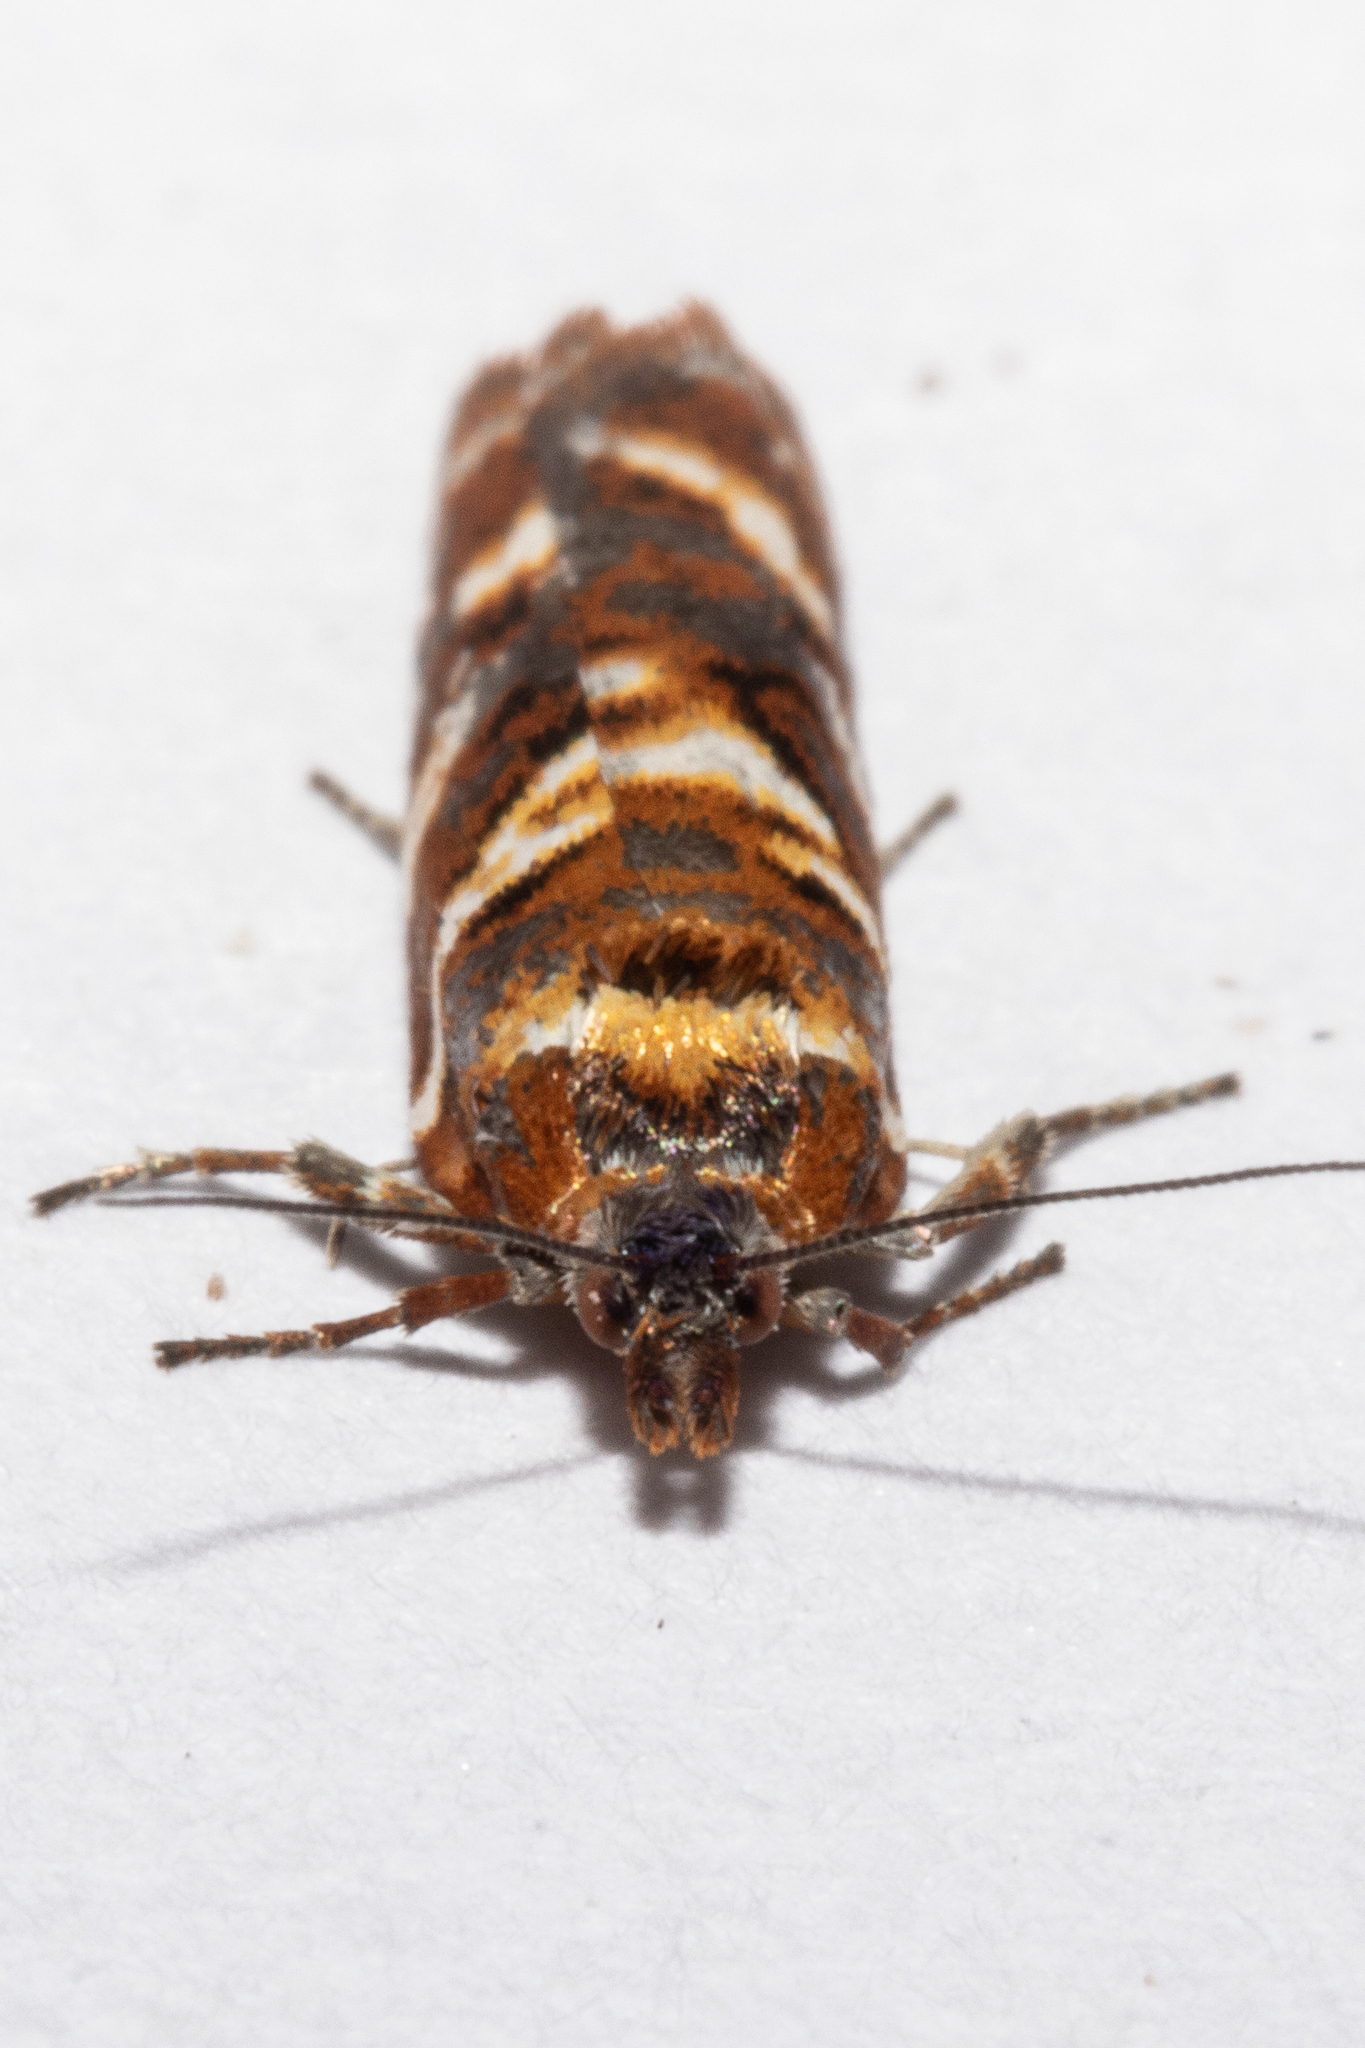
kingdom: Animalia
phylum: Arthropoda
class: Insecta
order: Lepidoptera
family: Tortricidae
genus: Harmologa
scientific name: Harmologa sanguinea
